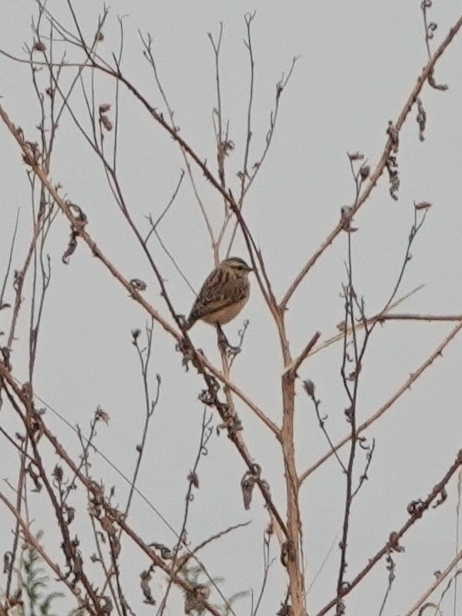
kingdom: Animalia
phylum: Chordata
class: Aves
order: Passeriformes
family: Muscicapidae
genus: Saxicola
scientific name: Saxicola rubetra
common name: Whinchat
